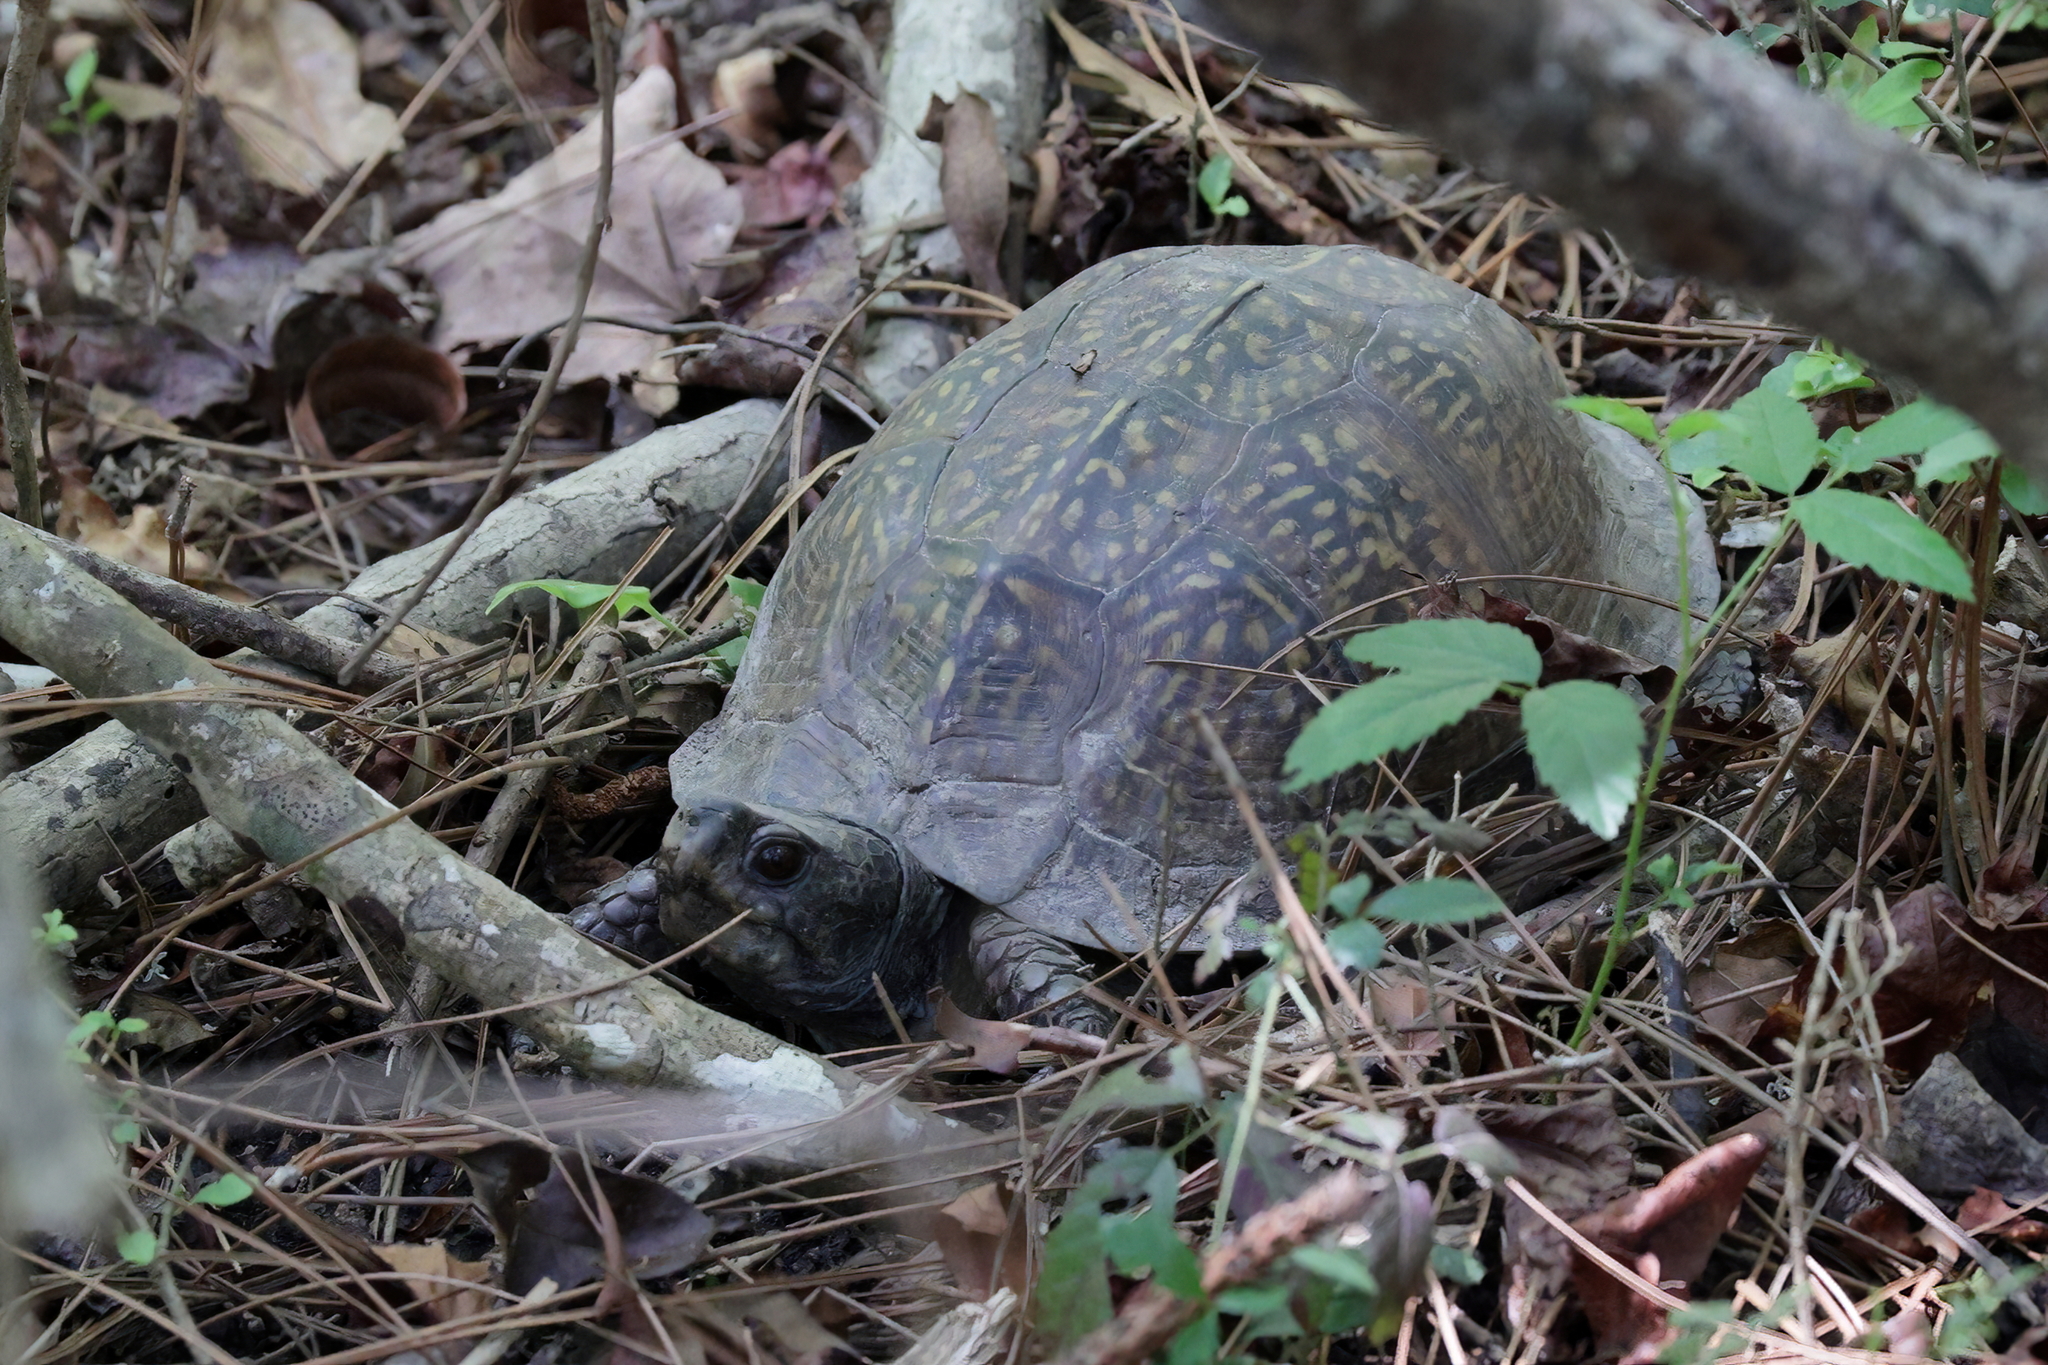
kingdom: Animalia
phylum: Chordata
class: Testudines
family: Emydidae
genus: Terrapene
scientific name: Terrapene carolina
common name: Common box turtle
